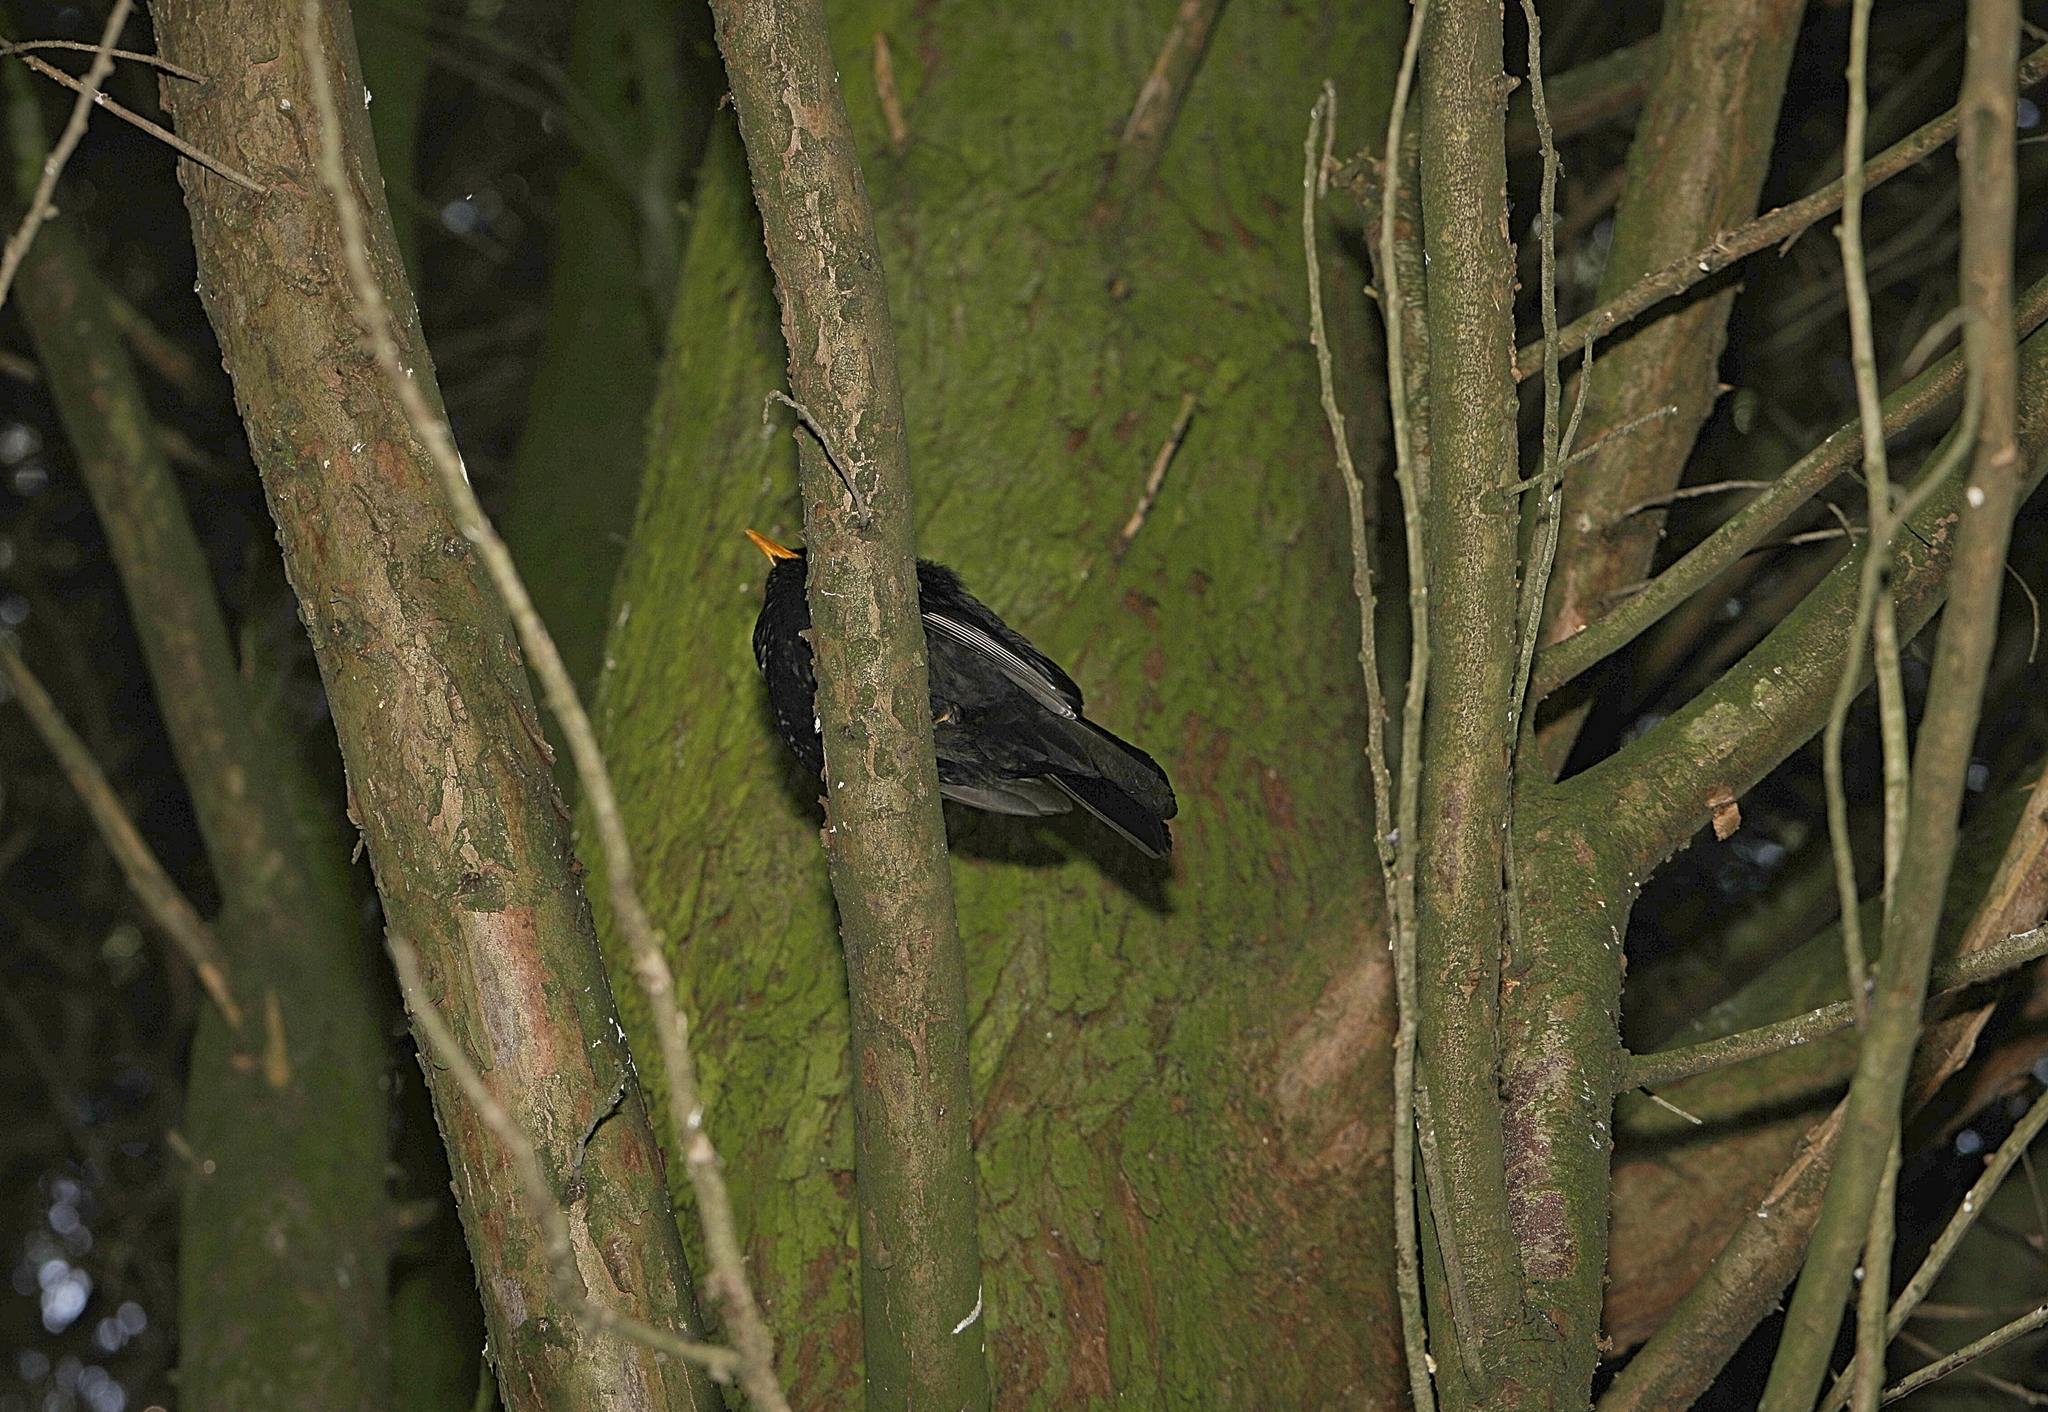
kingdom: Animalia
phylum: Chordata
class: Aves
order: Passeriformes
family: Turdidae
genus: Turdus
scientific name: Turdus merula
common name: Common blackbird
